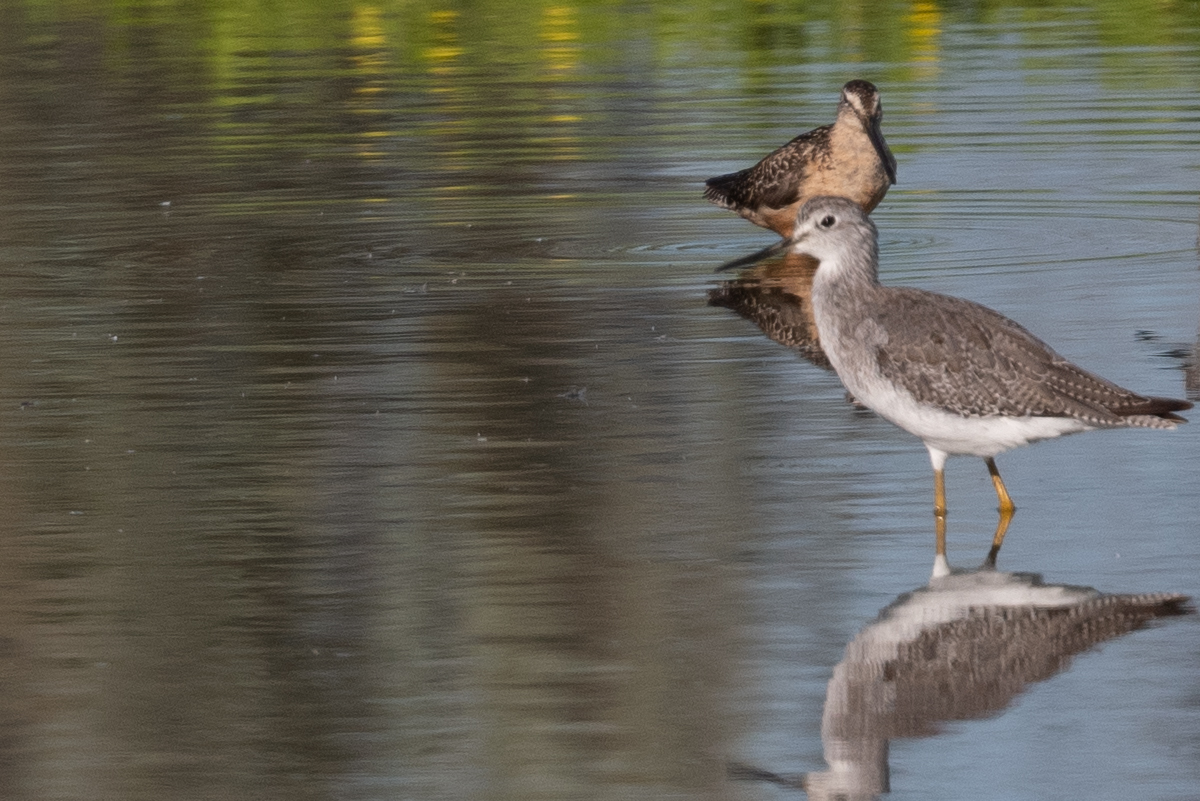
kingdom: Animalia
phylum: Chordata
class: Aves
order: Charadriiformes
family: Scolopacidae
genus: Tringa
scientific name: Tringa melanoleuca
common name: Greater yellowlegs
